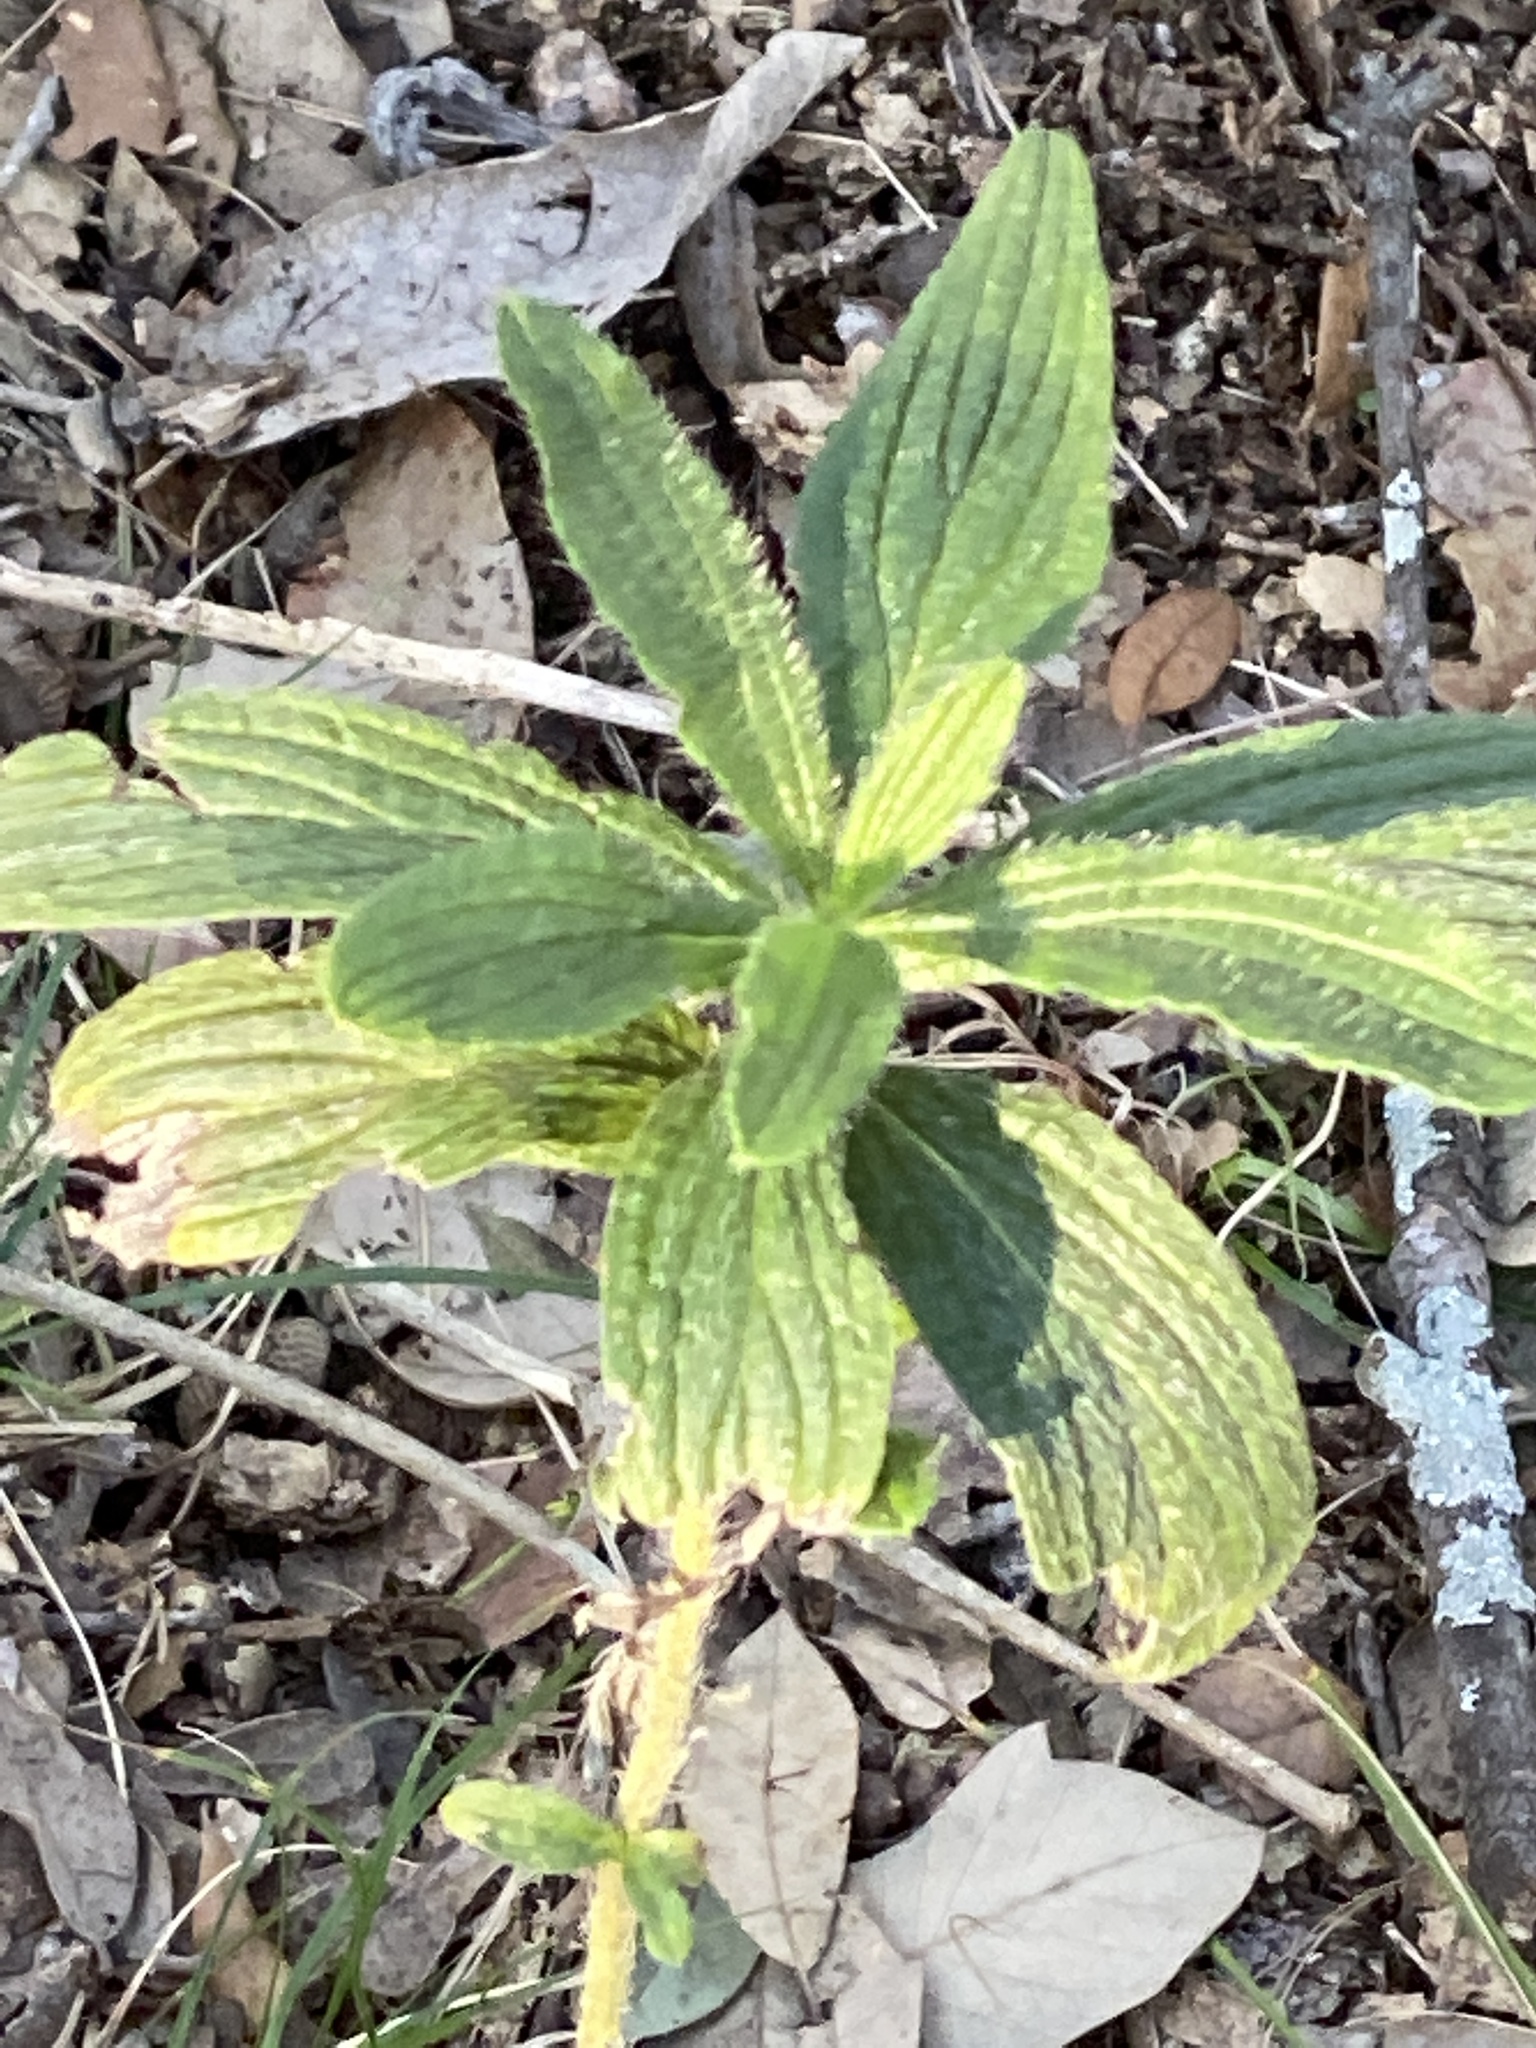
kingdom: Plantae
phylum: Tracheophyta
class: Magnoliopsida
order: Boraginales
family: Boraginaceae
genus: Lithospermum
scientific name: Lithospermum caroliniense
